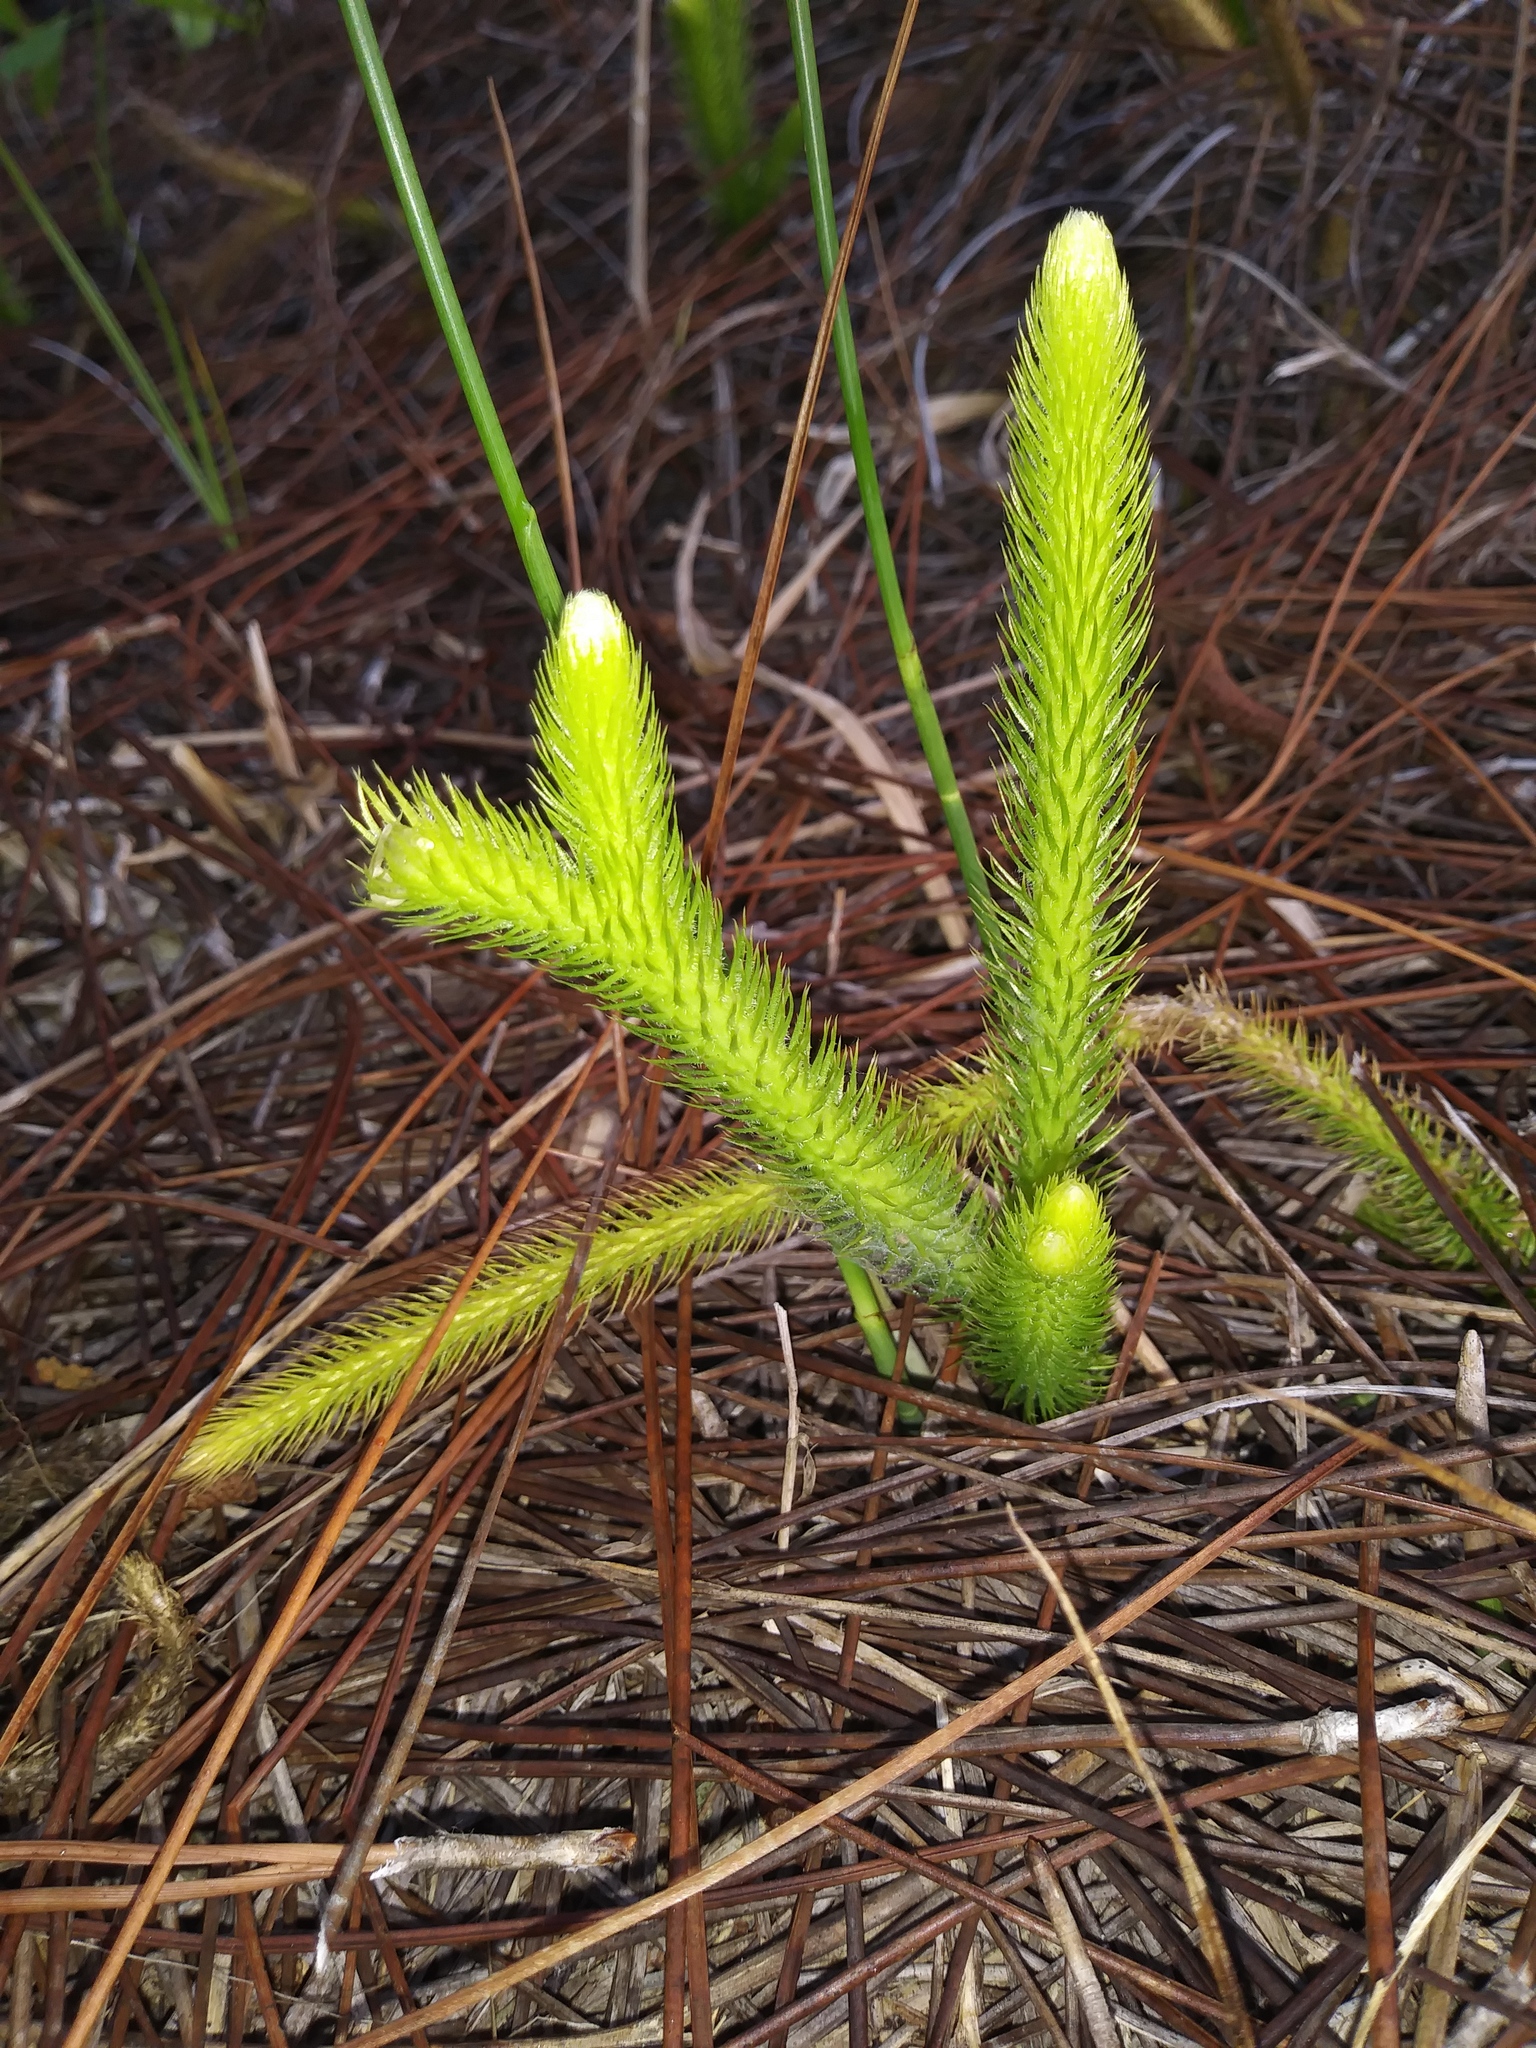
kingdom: Plantae
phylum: Tracheophyta
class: Lycopodiopsida
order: Lycopodiales
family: Lycopodiaceae
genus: Lycopodiella
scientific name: Lycopodiella alopecuroides
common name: Foxtail clubmoss
